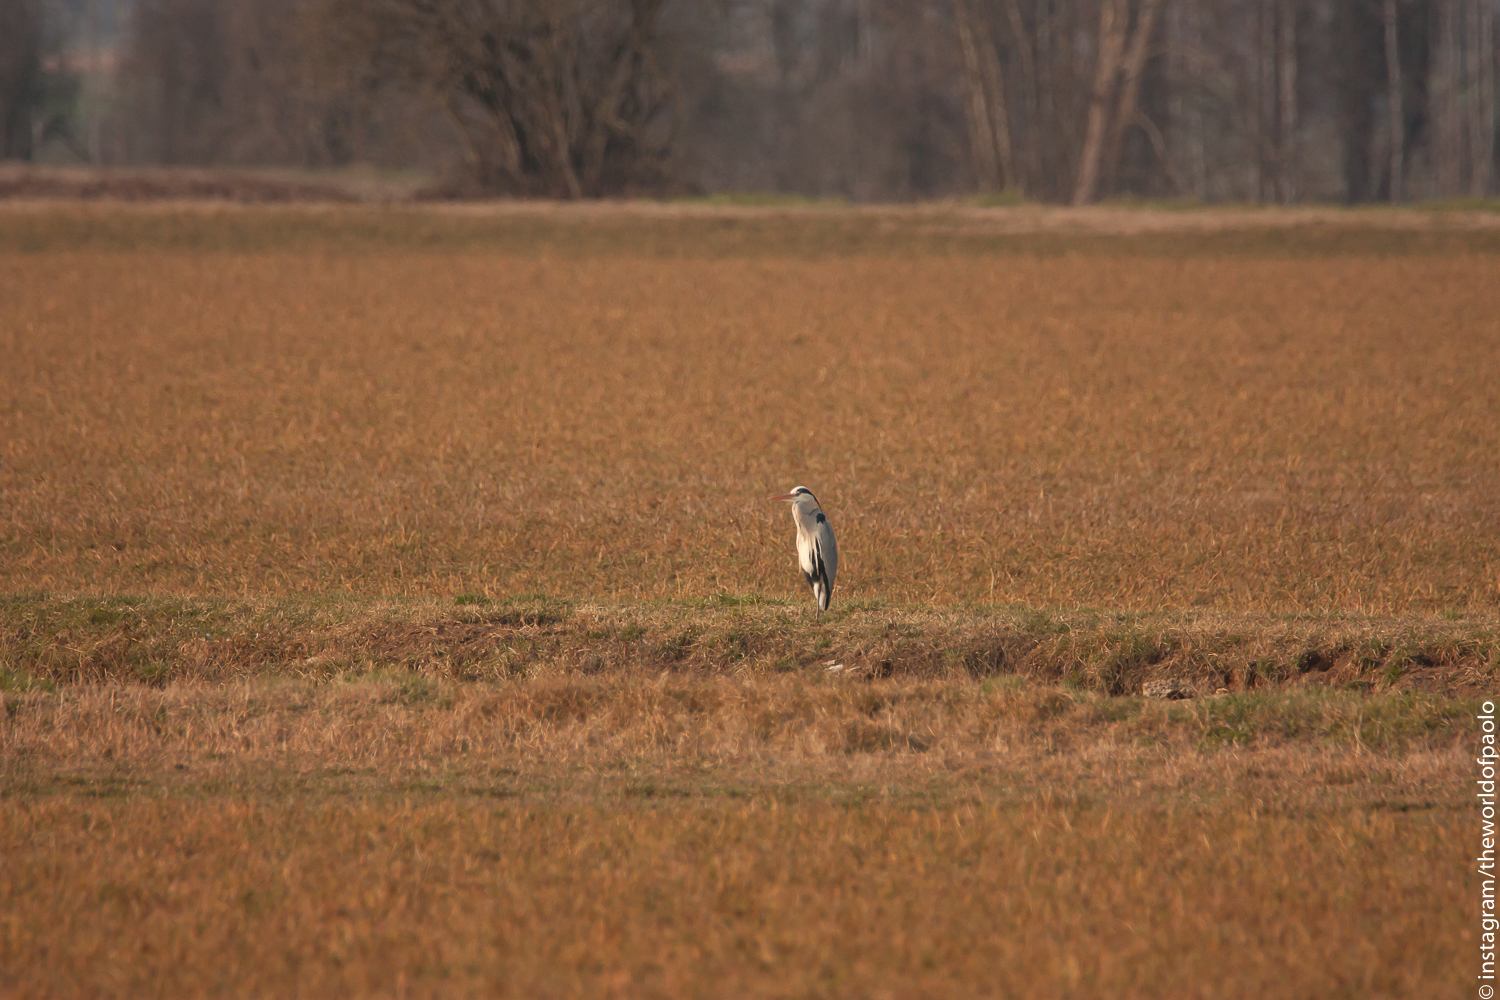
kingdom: Animalia
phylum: Chordata
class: Aves
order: Pelecaniformes
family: Ardeidae
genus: Ardea
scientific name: Ardea cinerea
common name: Grey heron
